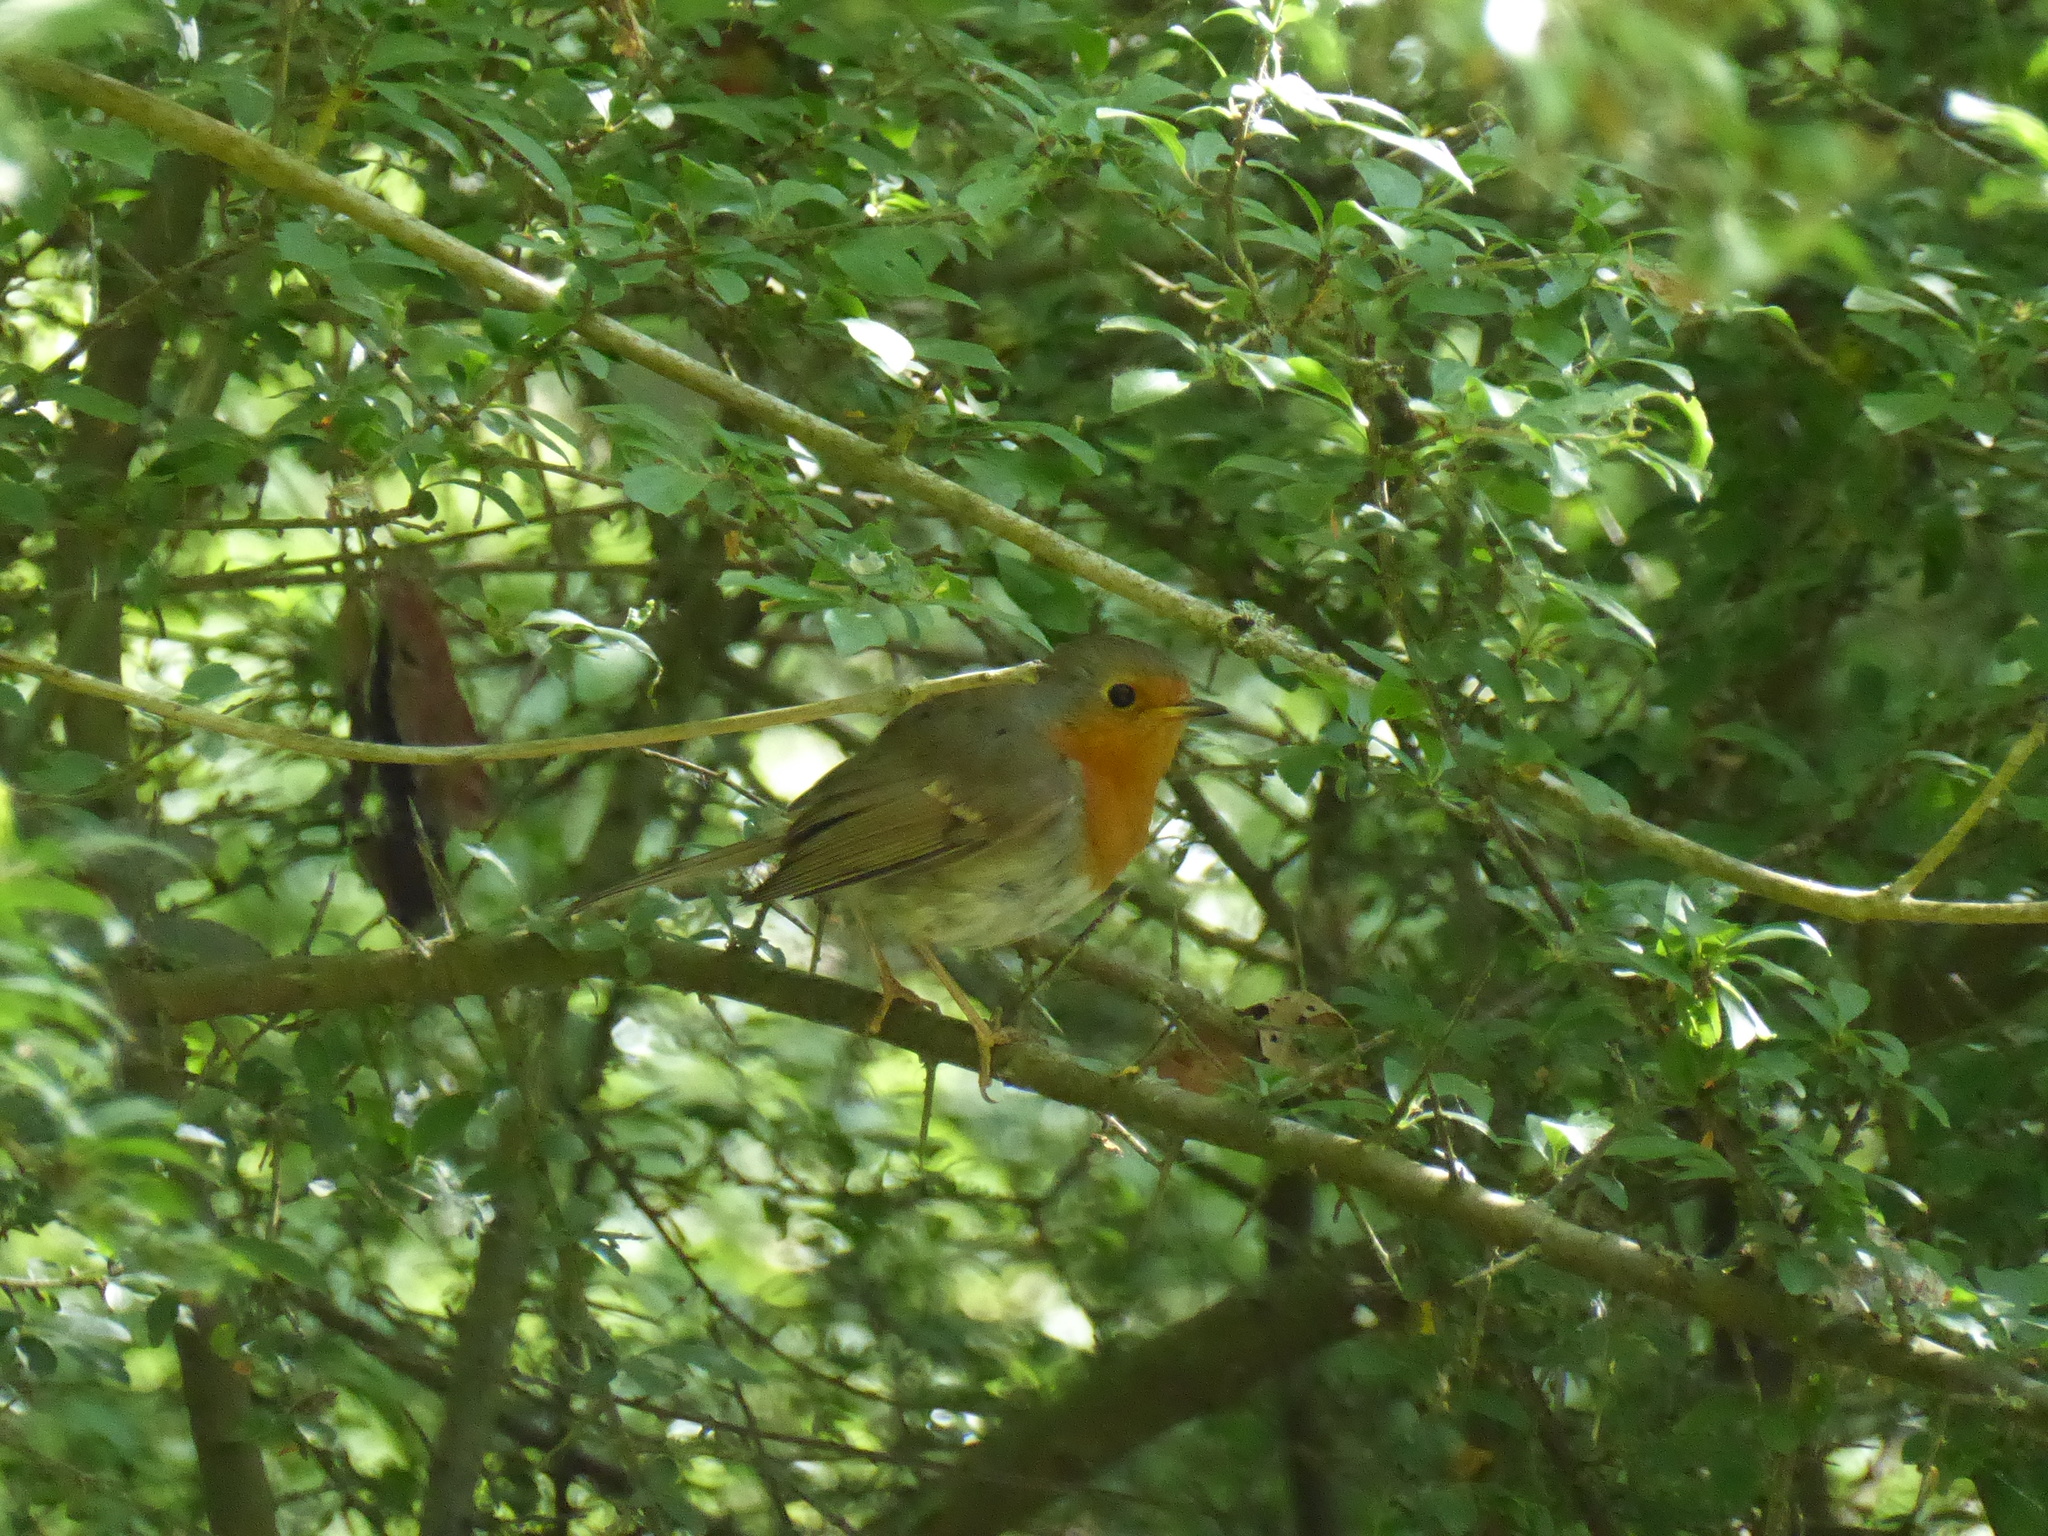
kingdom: Animalia
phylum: Chordata
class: Aves
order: Passeriformes
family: Muscicapidae
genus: Erithacus
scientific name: Erithacus rubecula
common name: European robin
